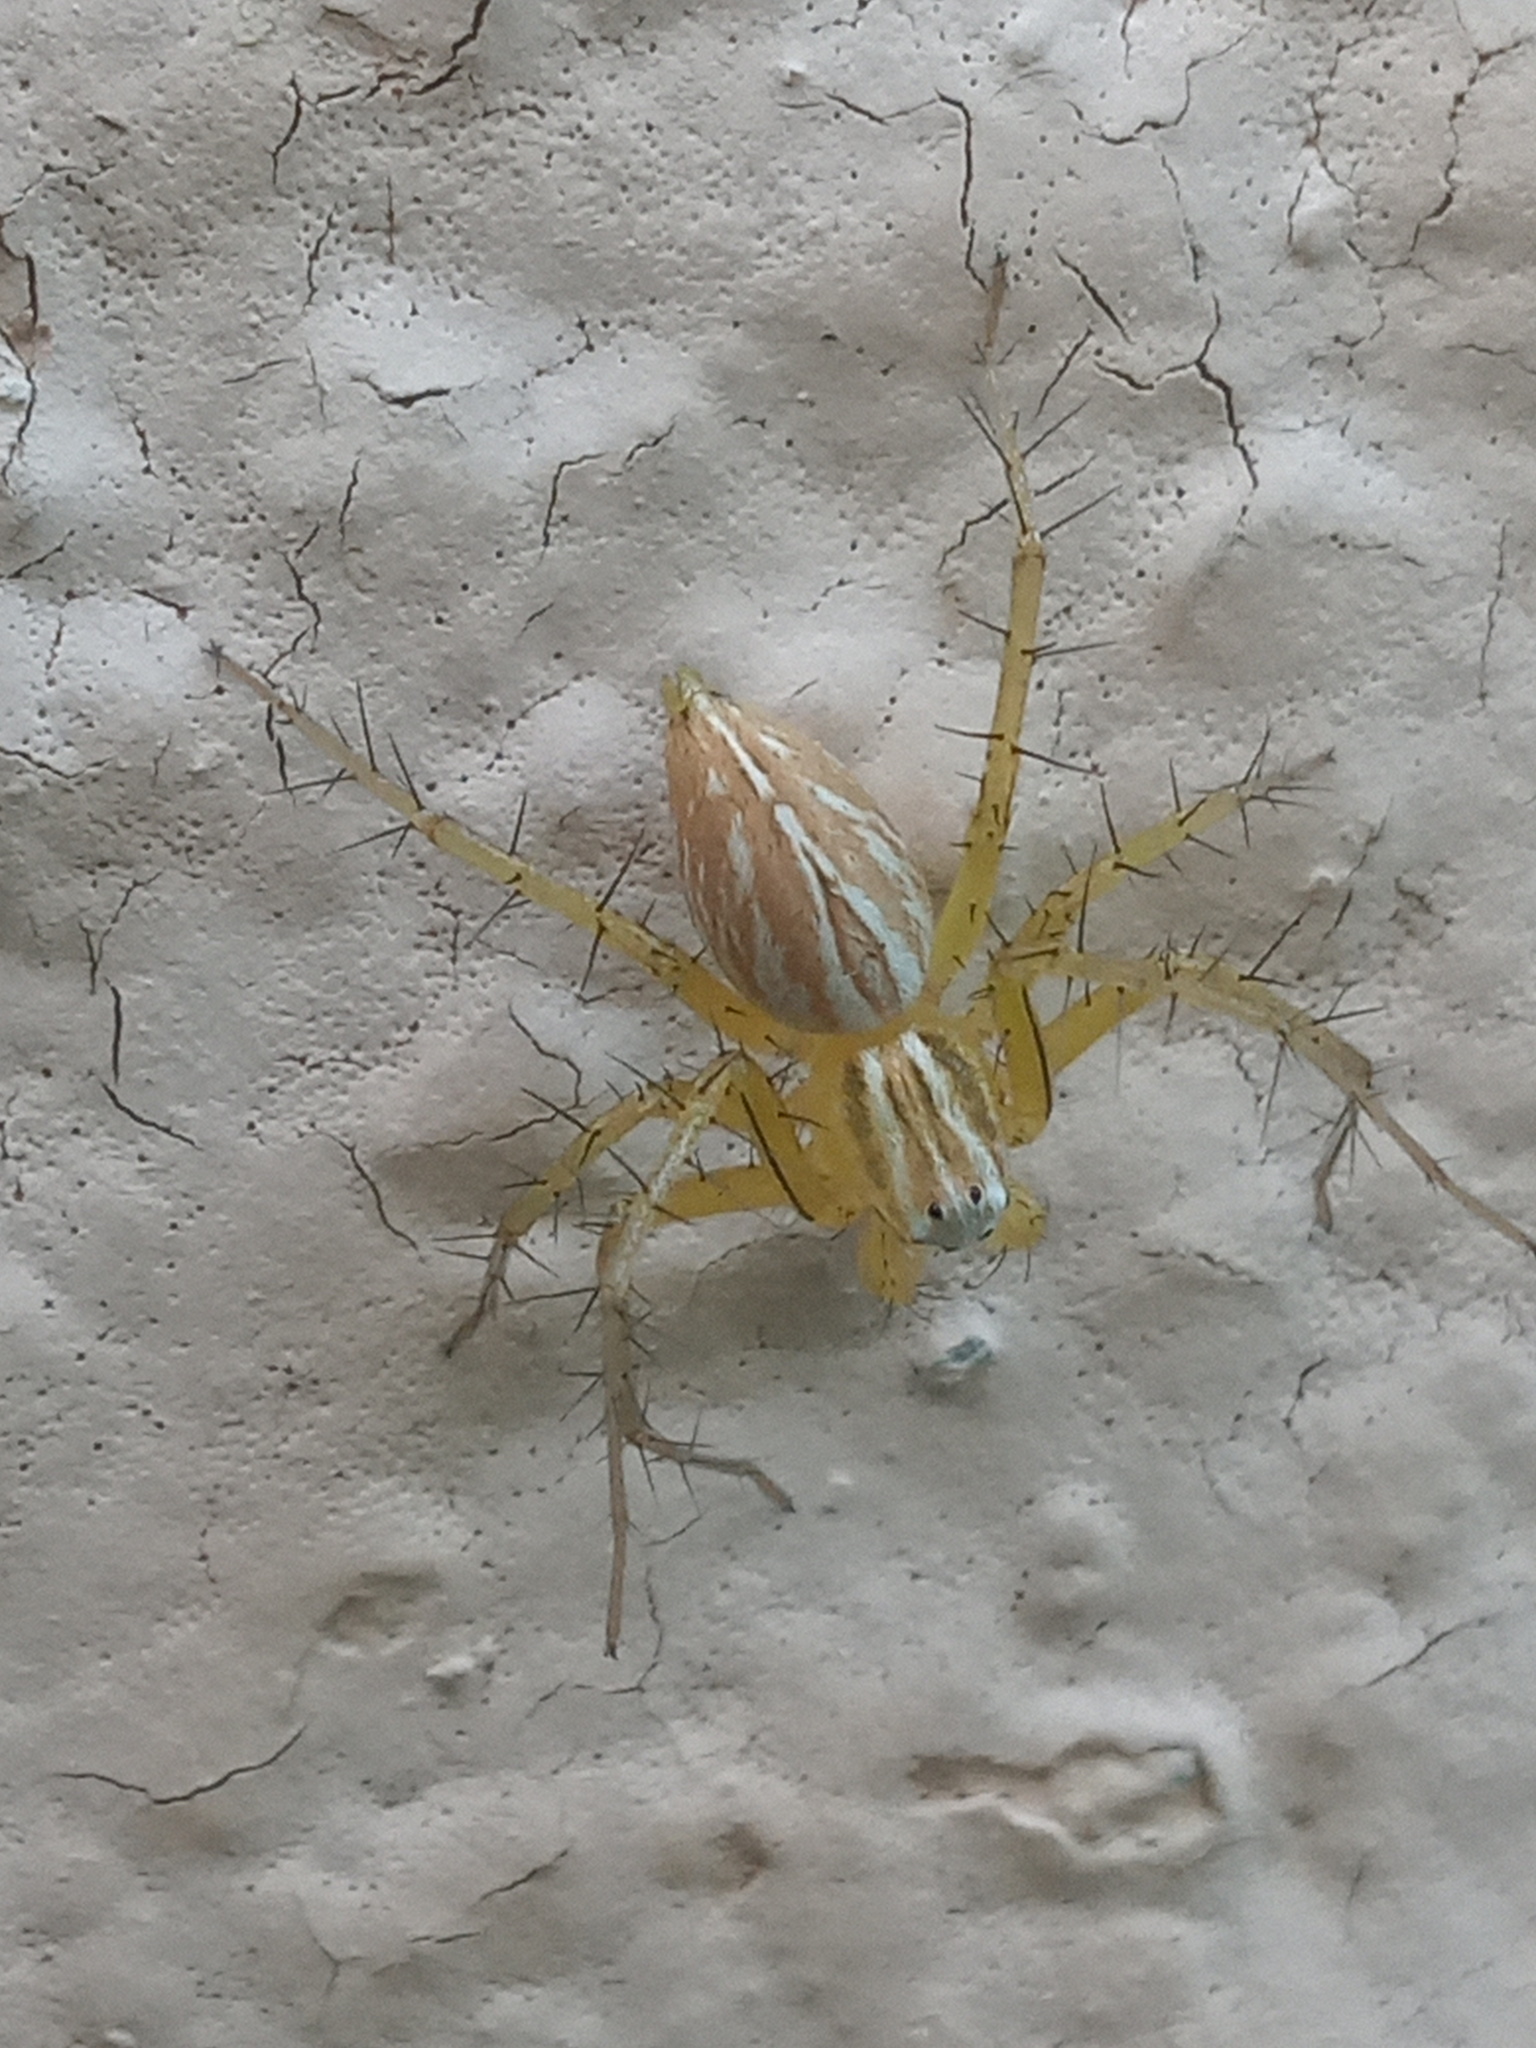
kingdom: Animalia
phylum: Arthropoda
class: Arachnida
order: Araneae
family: Oxyopidae
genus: Oxyopes
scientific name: Oxyopes salticus
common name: Lynx spiders
